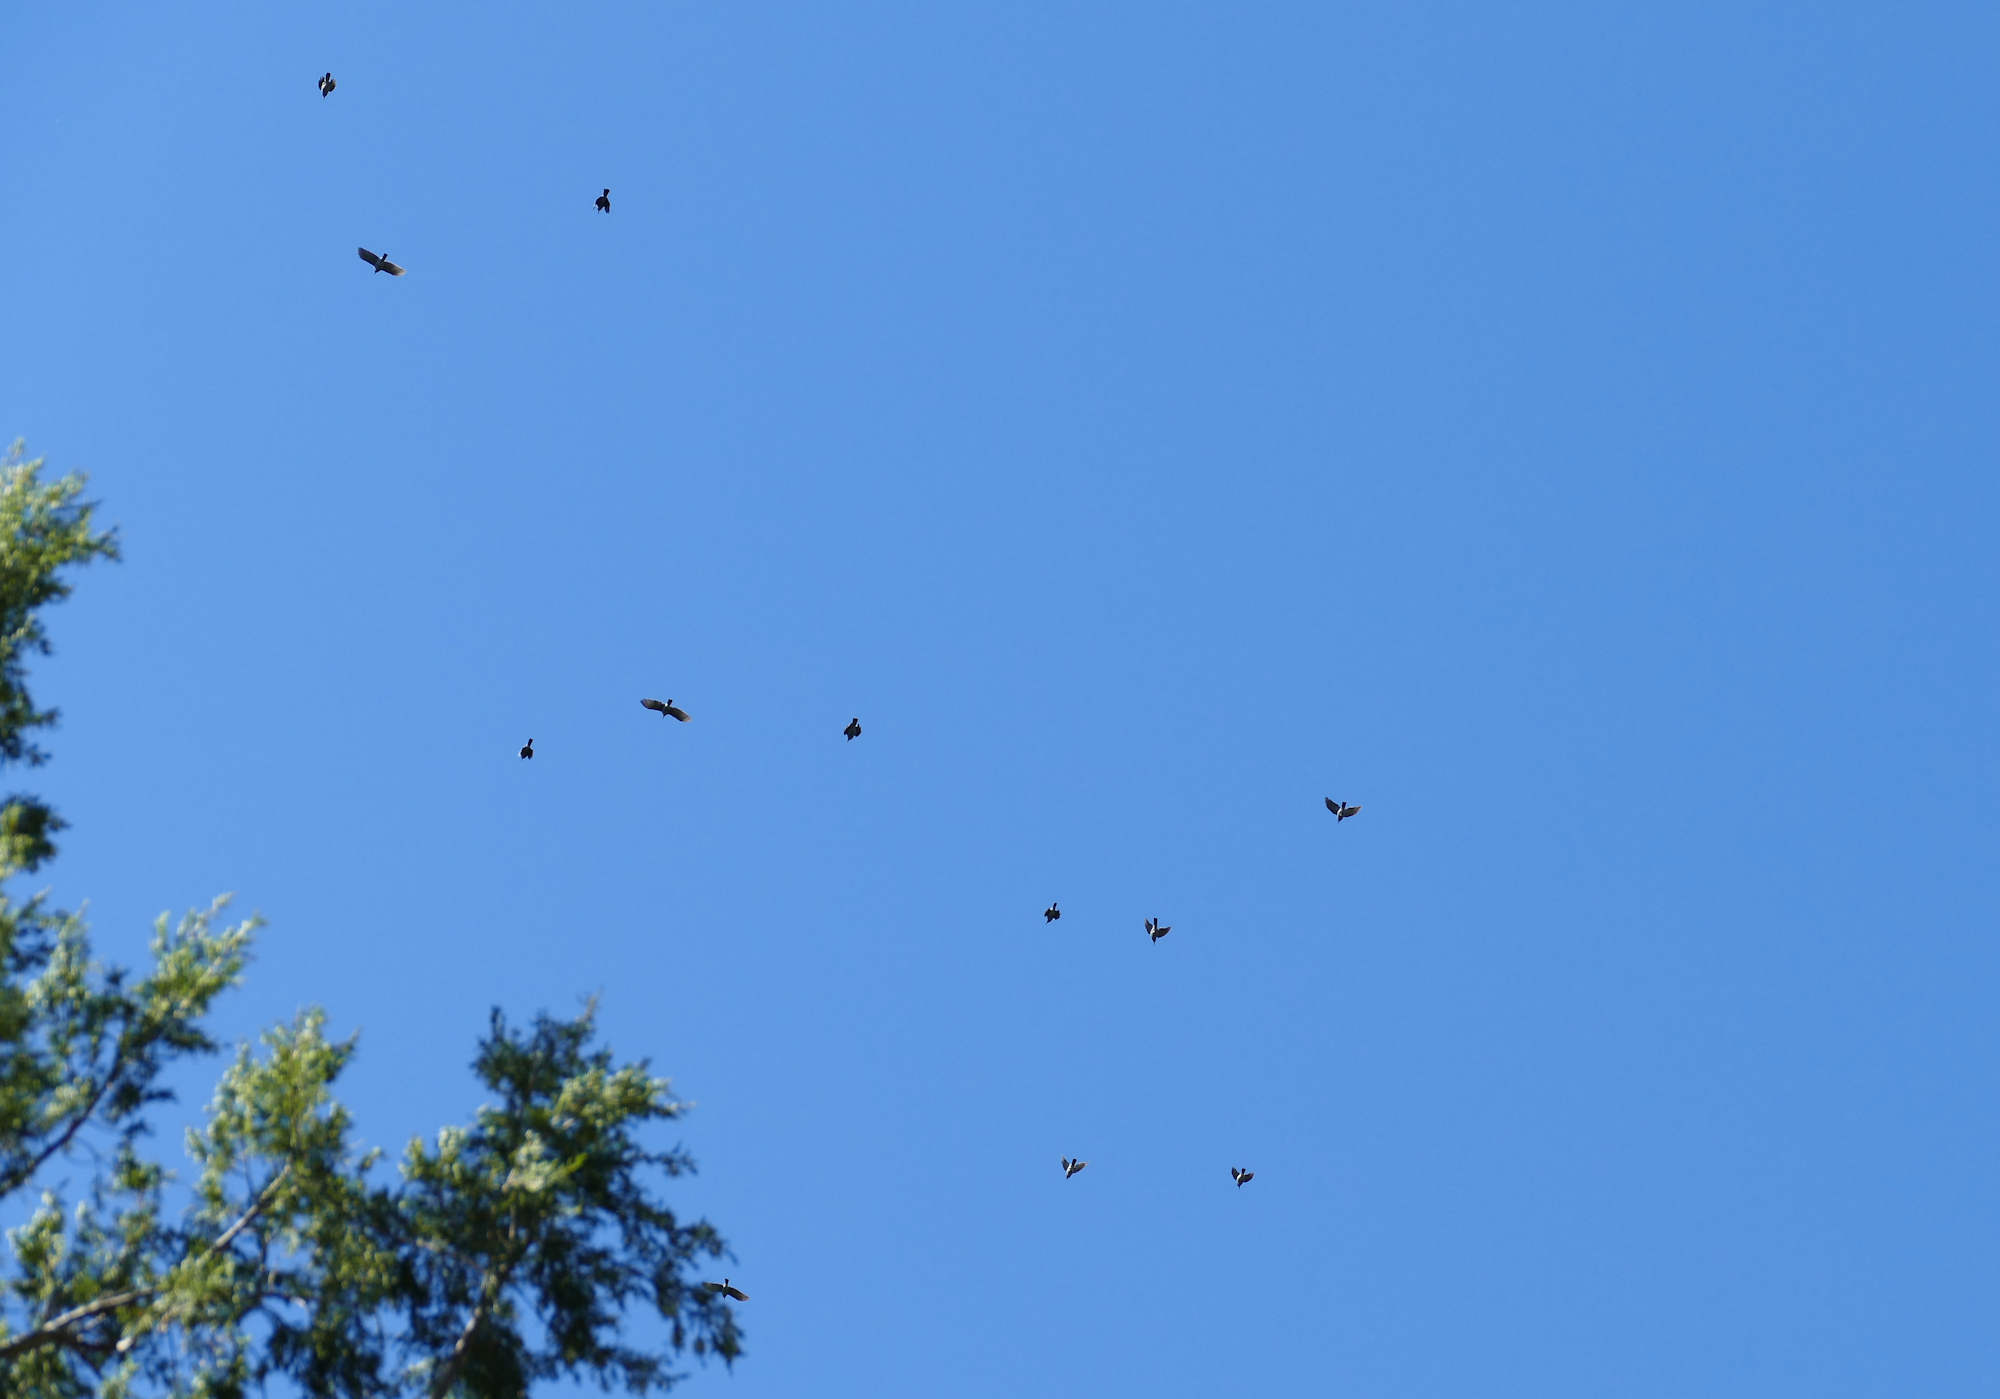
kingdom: Animalia
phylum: Chordata
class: Aves
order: Passeriformes
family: Corvidae
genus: Gymnorhinus
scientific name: Gymnorhinus cyanocephalus
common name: Pinyon jay
